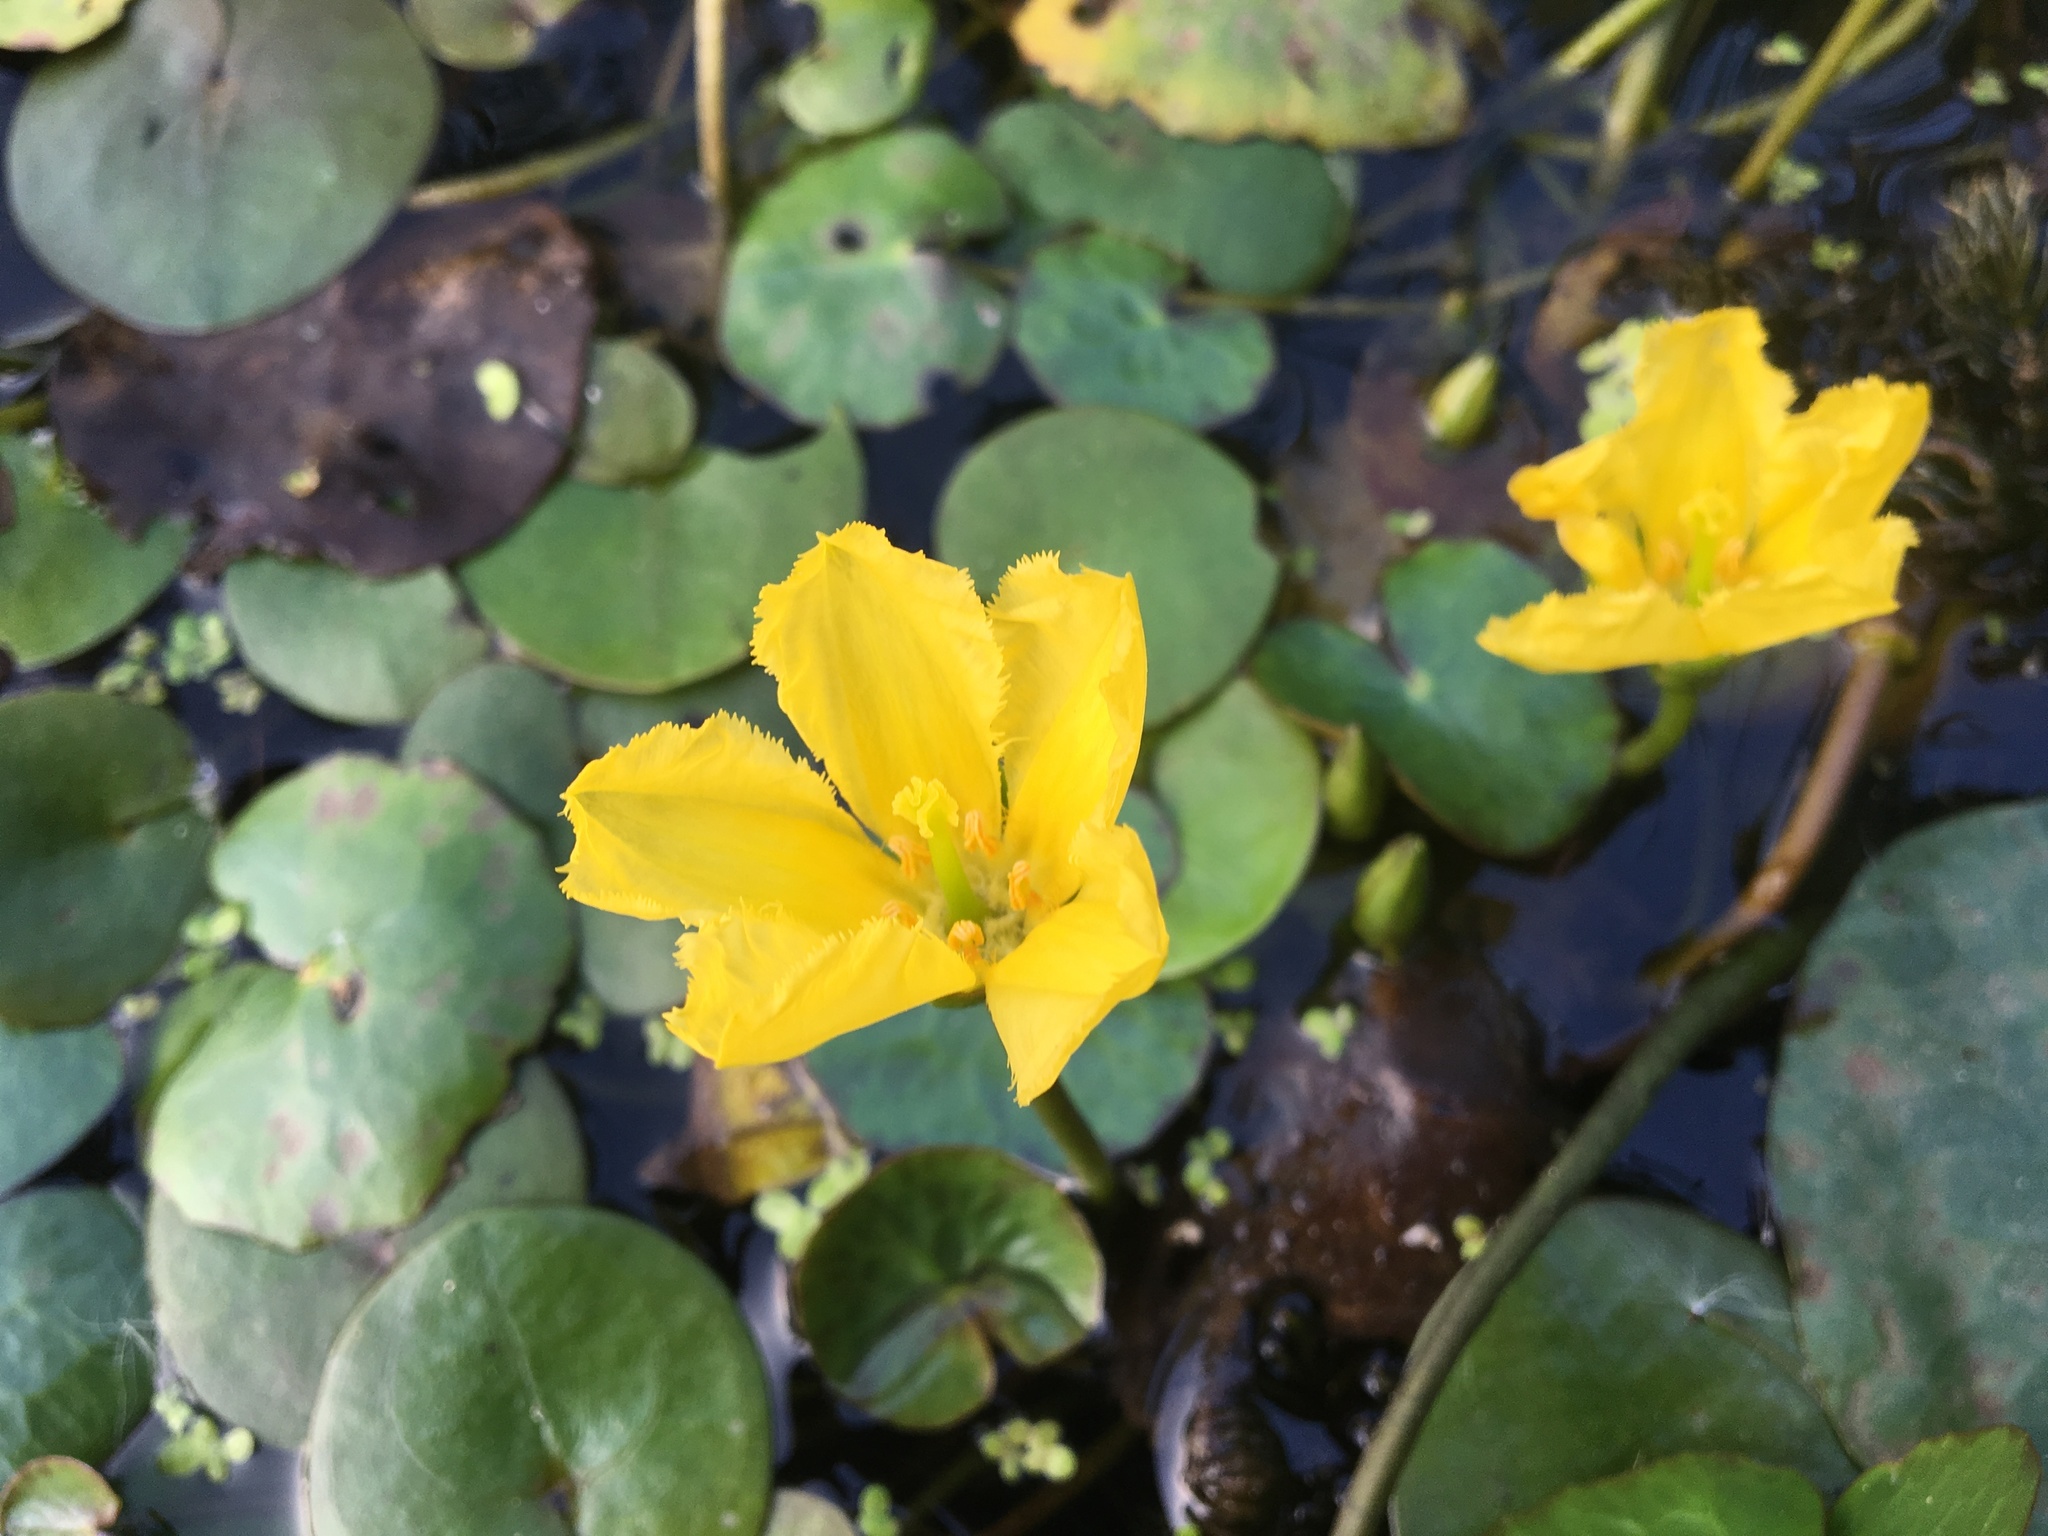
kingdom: Plantae
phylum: Tracheophyta
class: Magnoliopsida
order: Asterales
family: Menyanthaceae
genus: Nymphoides
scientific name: Nymphoides peltata
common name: Fringed water-lily
